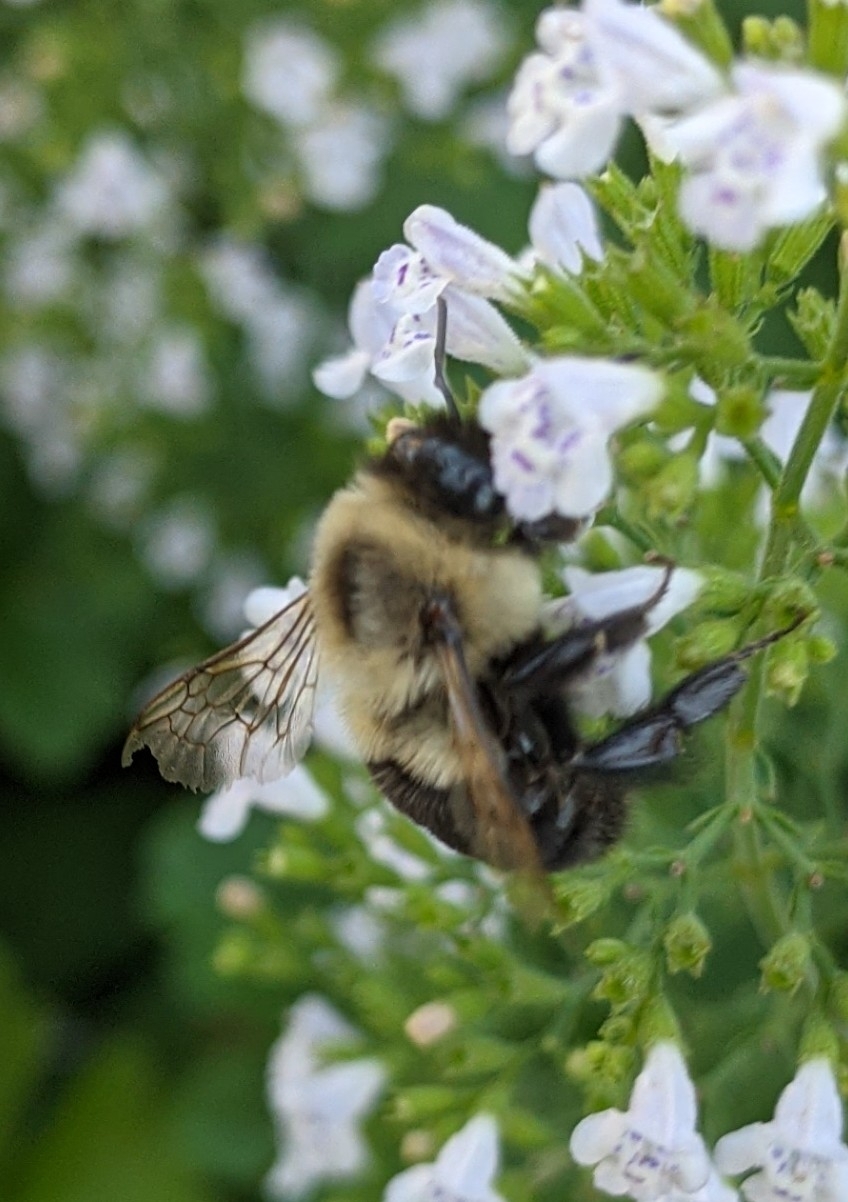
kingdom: Animalia
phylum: Arthropoda
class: Insecta
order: Hymenoptera
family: Apidae
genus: Bombus
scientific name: Bombus impatiens
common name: Common eastern bumble bee
